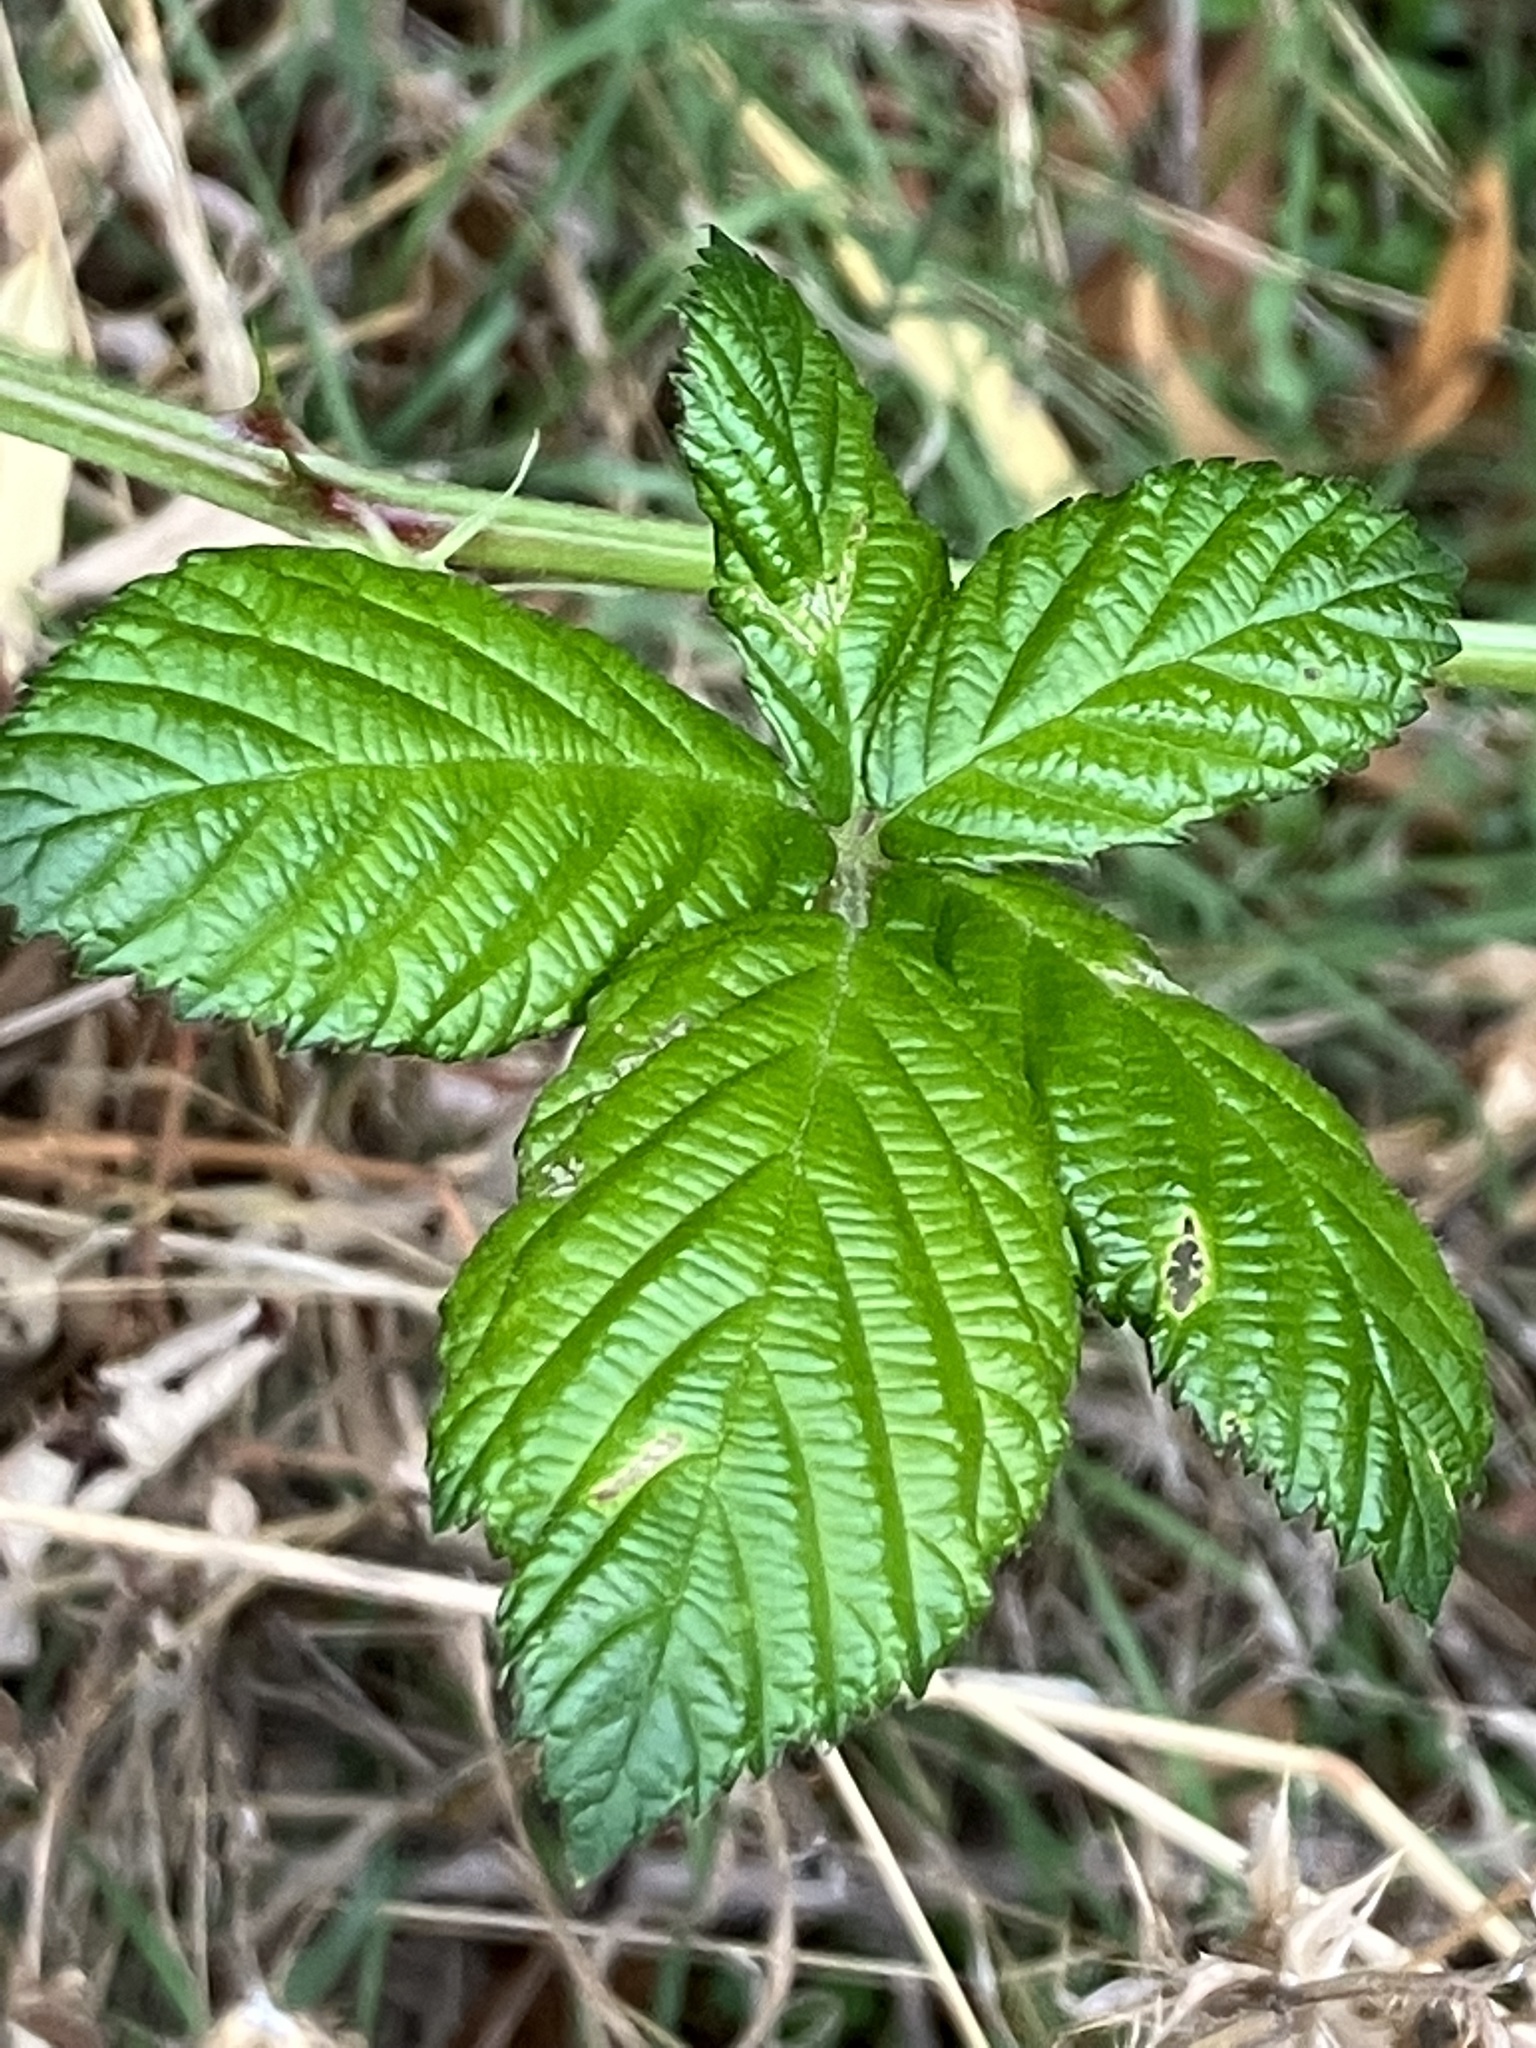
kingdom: Plantae
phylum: Tracheophyta
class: Magnoliopsida
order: Rosales
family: Rosaceae
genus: Rubus
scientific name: Rubus armeniacus
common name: Himalayan blackberry
